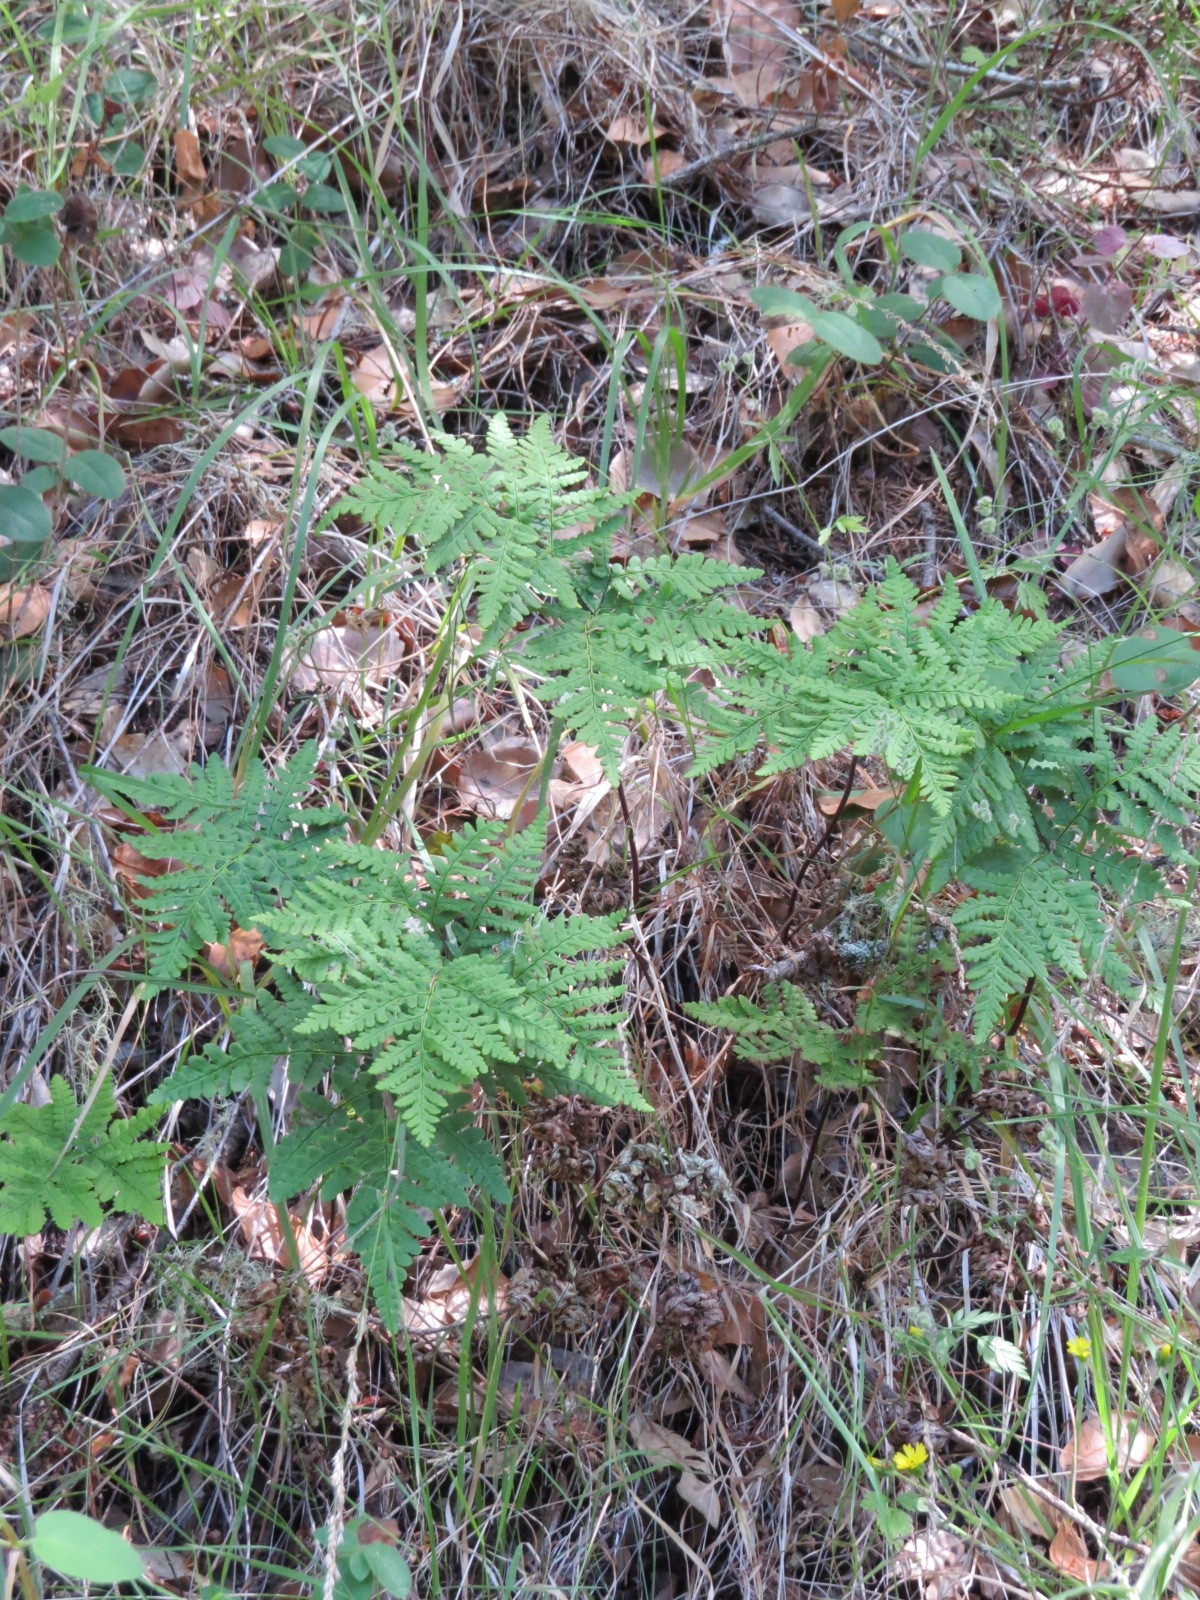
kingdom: Plantae
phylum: Tracheophyta
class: Polypodiopsida
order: Polypodiales
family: Pteridaceae
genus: Pentagramma
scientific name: Pentagramma triangularis
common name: Gold fern
